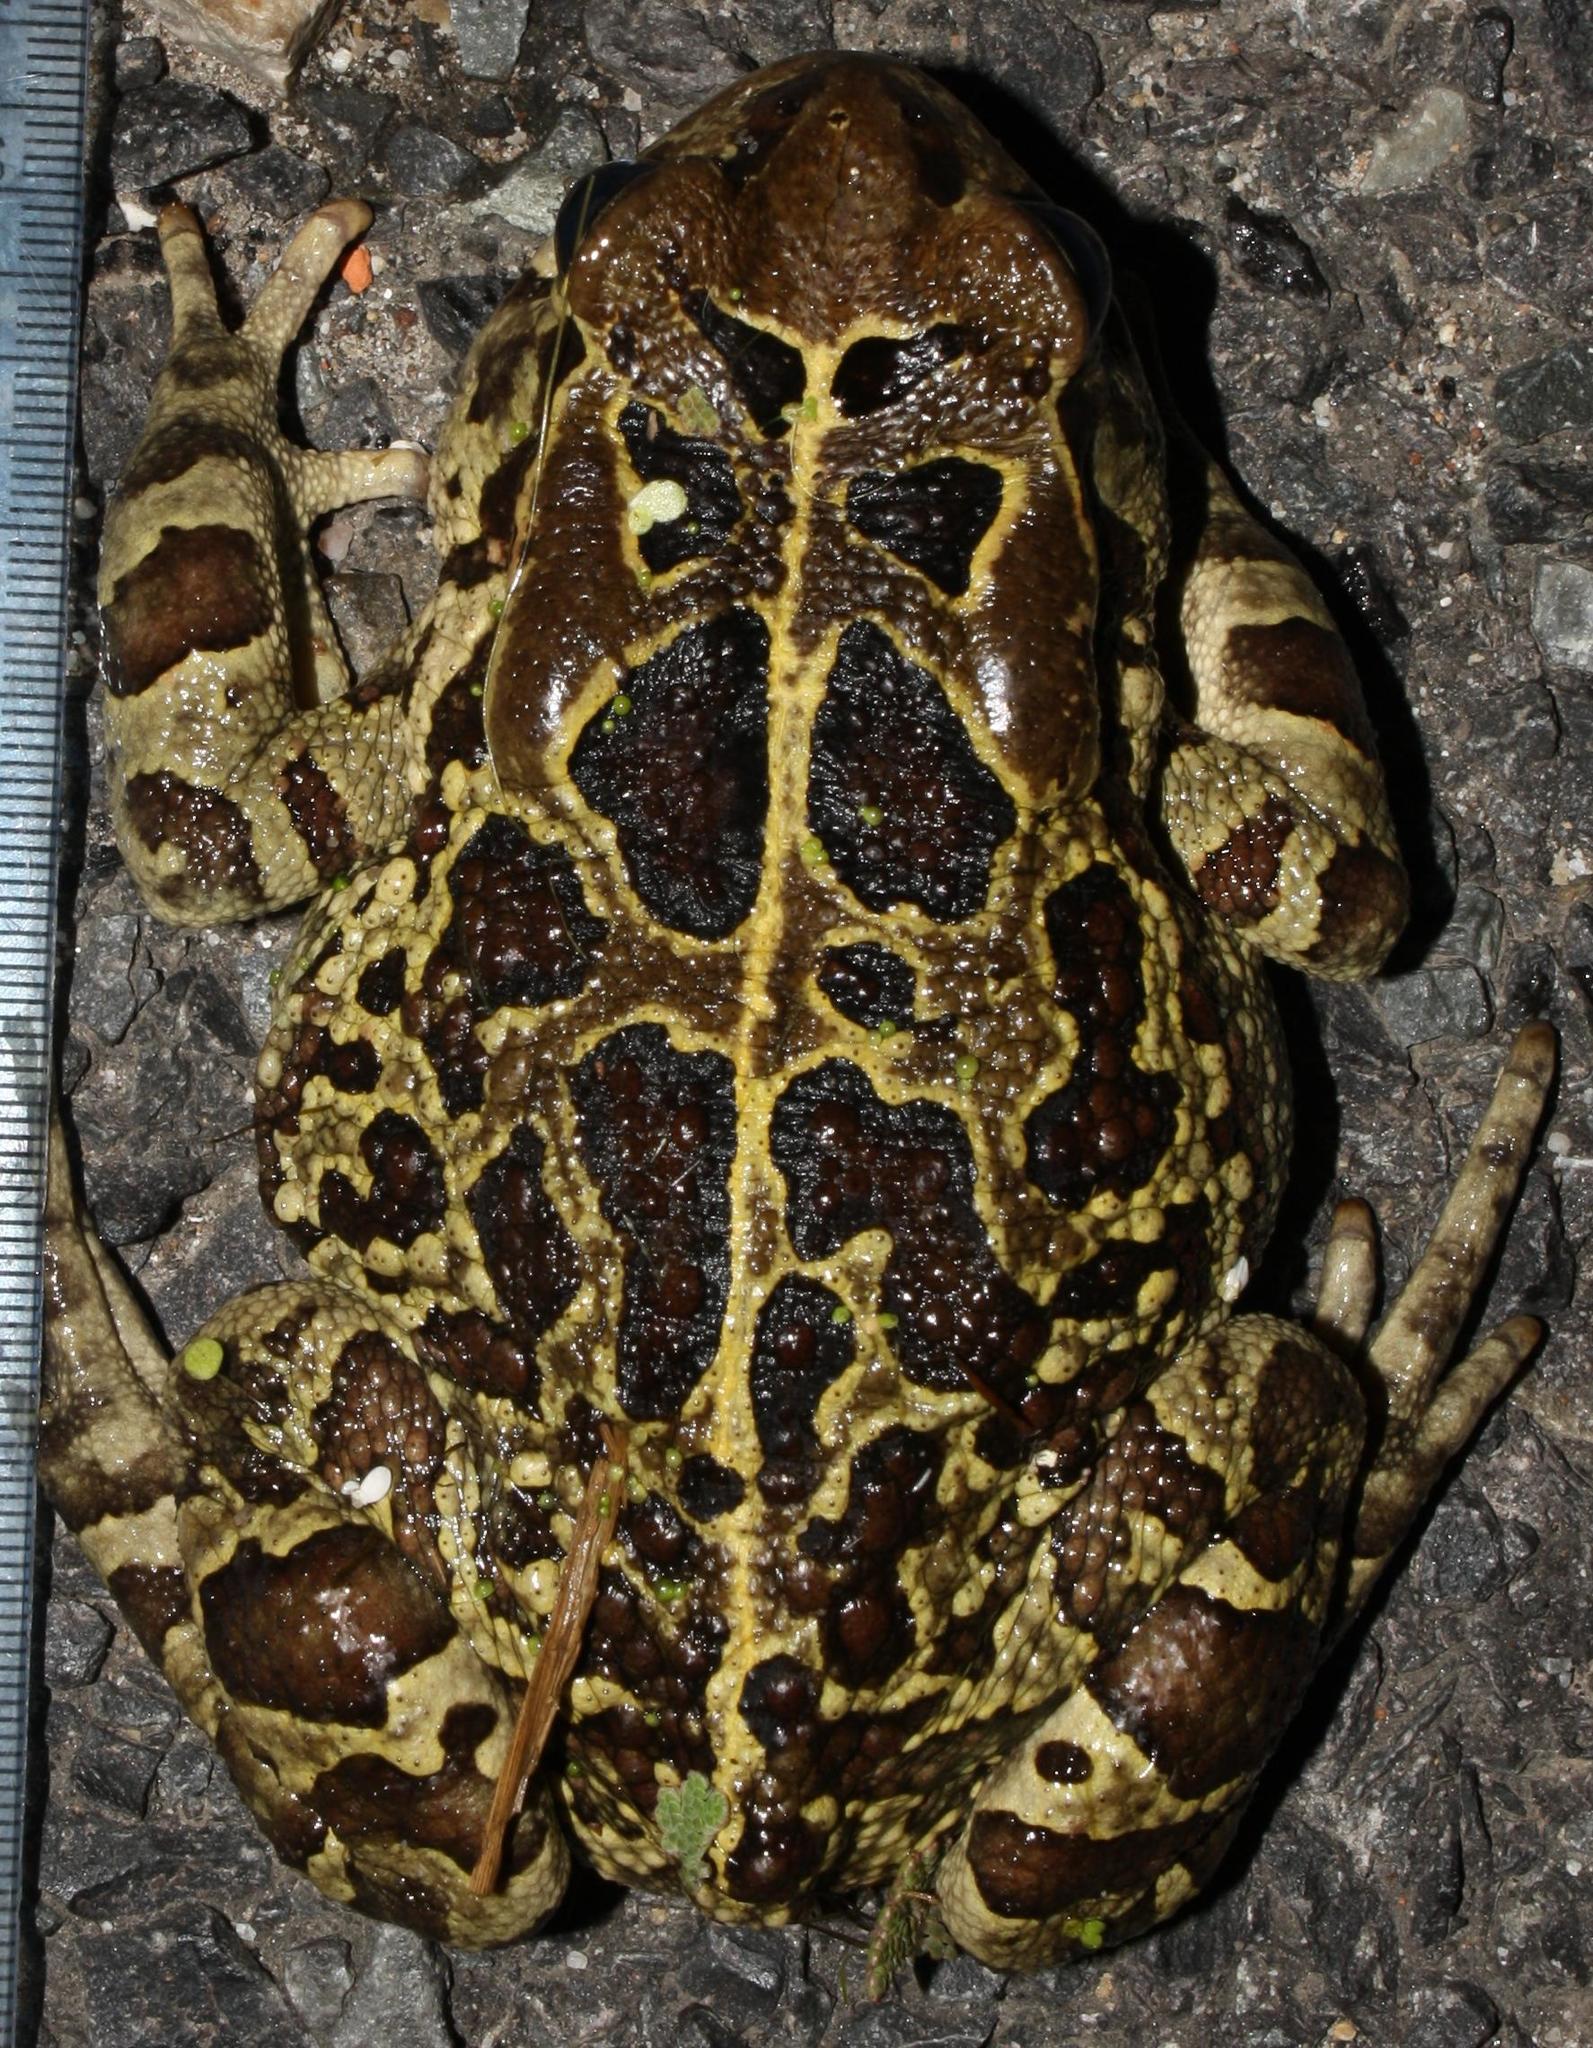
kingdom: Animalia
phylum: Chordata
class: Amphibia
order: Anura
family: Bufonidae
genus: Sclerophrys
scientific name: Sclerophrys pantherina
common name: Panther toad
